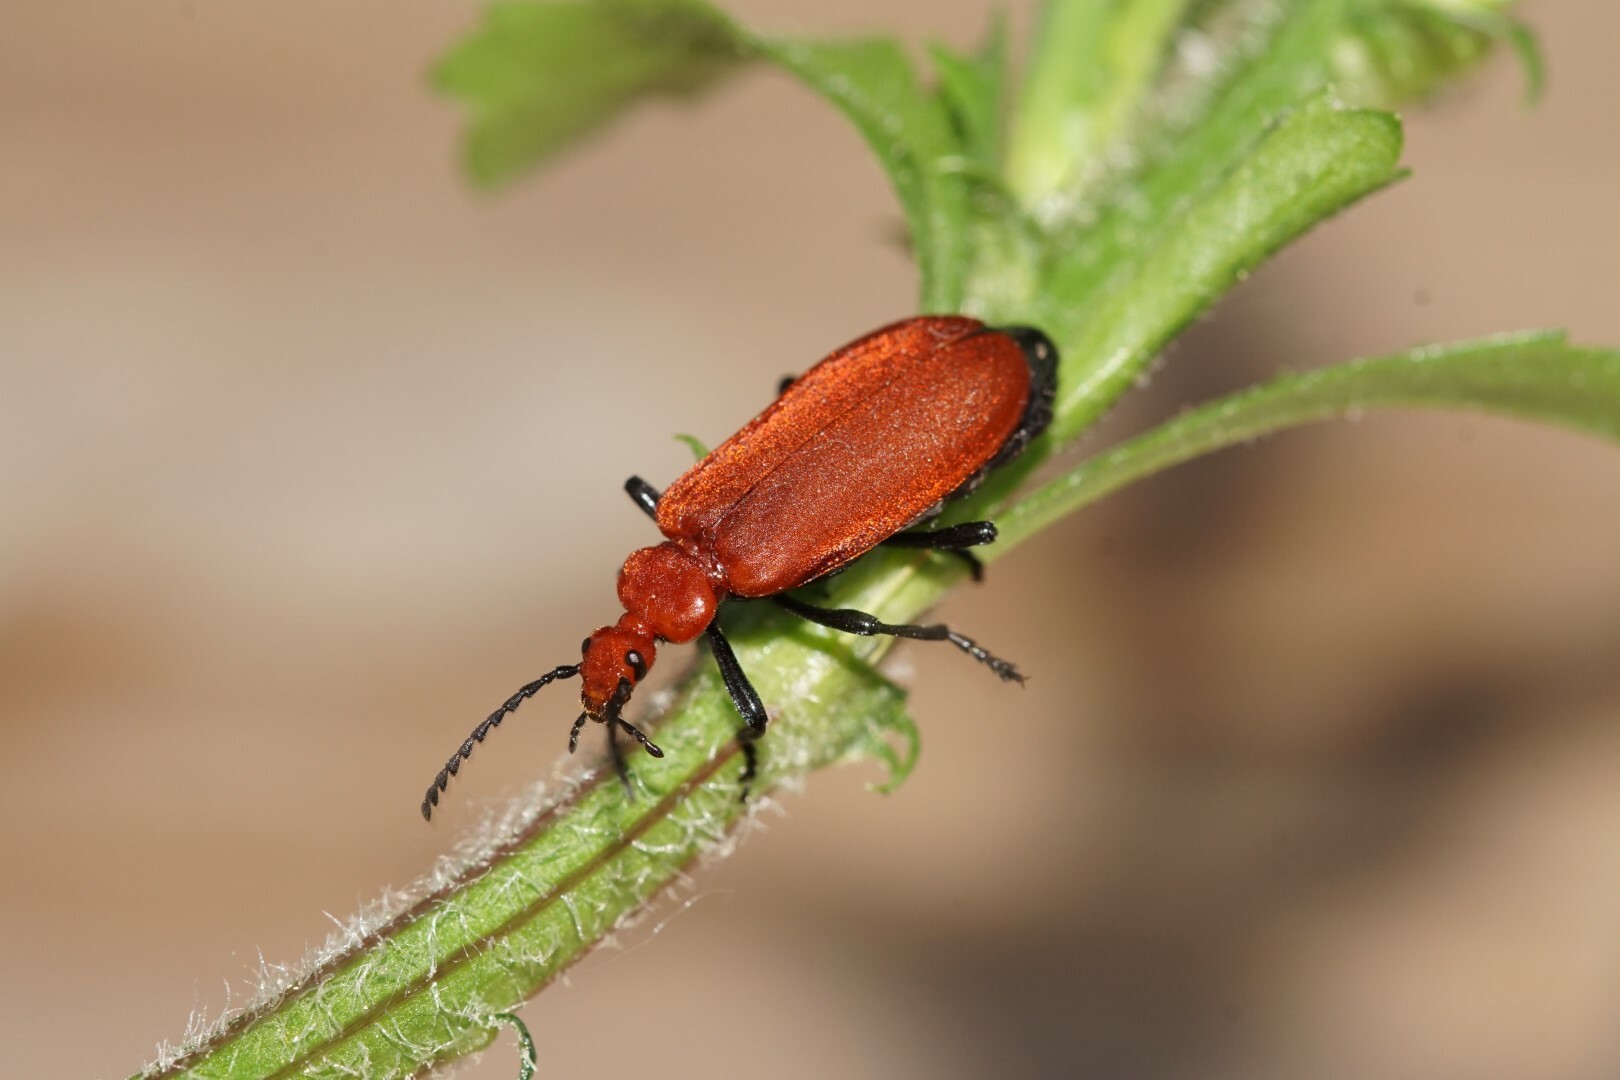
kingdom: Animalia
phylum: Arthropoda
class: Insecta
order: Coleoptera
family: Pyrochroidae
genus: Pyrochroa
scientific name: Pyrochroa serraticornis
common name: Red-headed cardinal beetle
